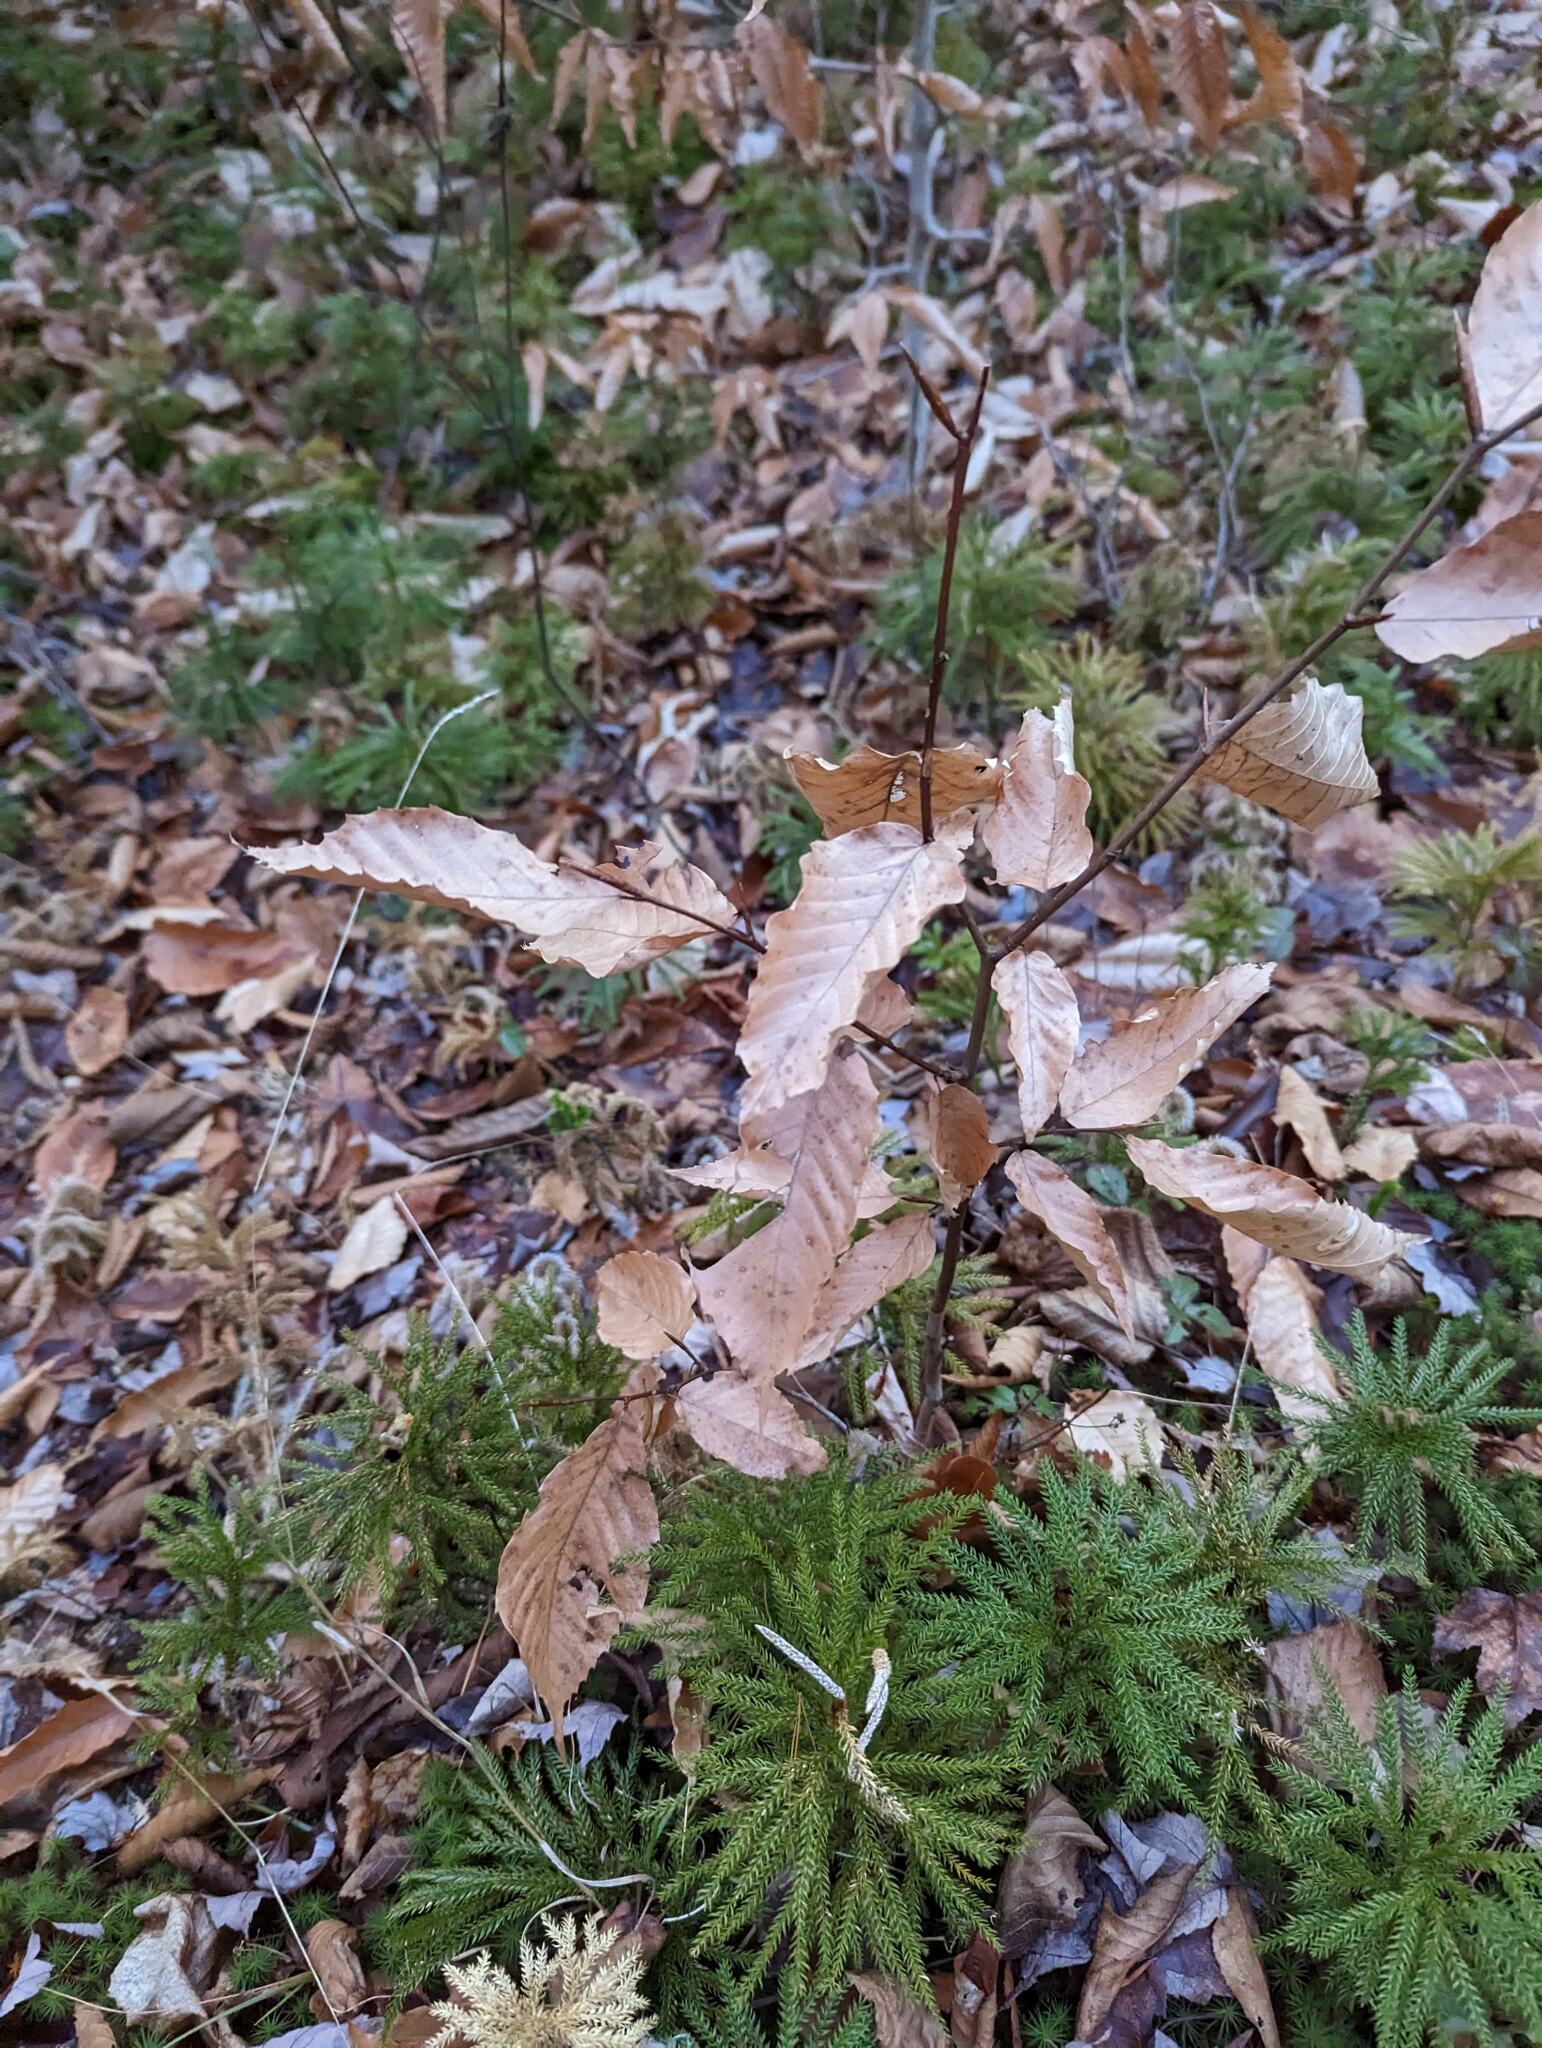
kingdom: Plantae
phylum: Tracheophyta
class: Magnoliopsida
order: Fagales
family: Fagaceae
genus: Fagus
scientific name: Fagus grandifolia
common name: American beech
